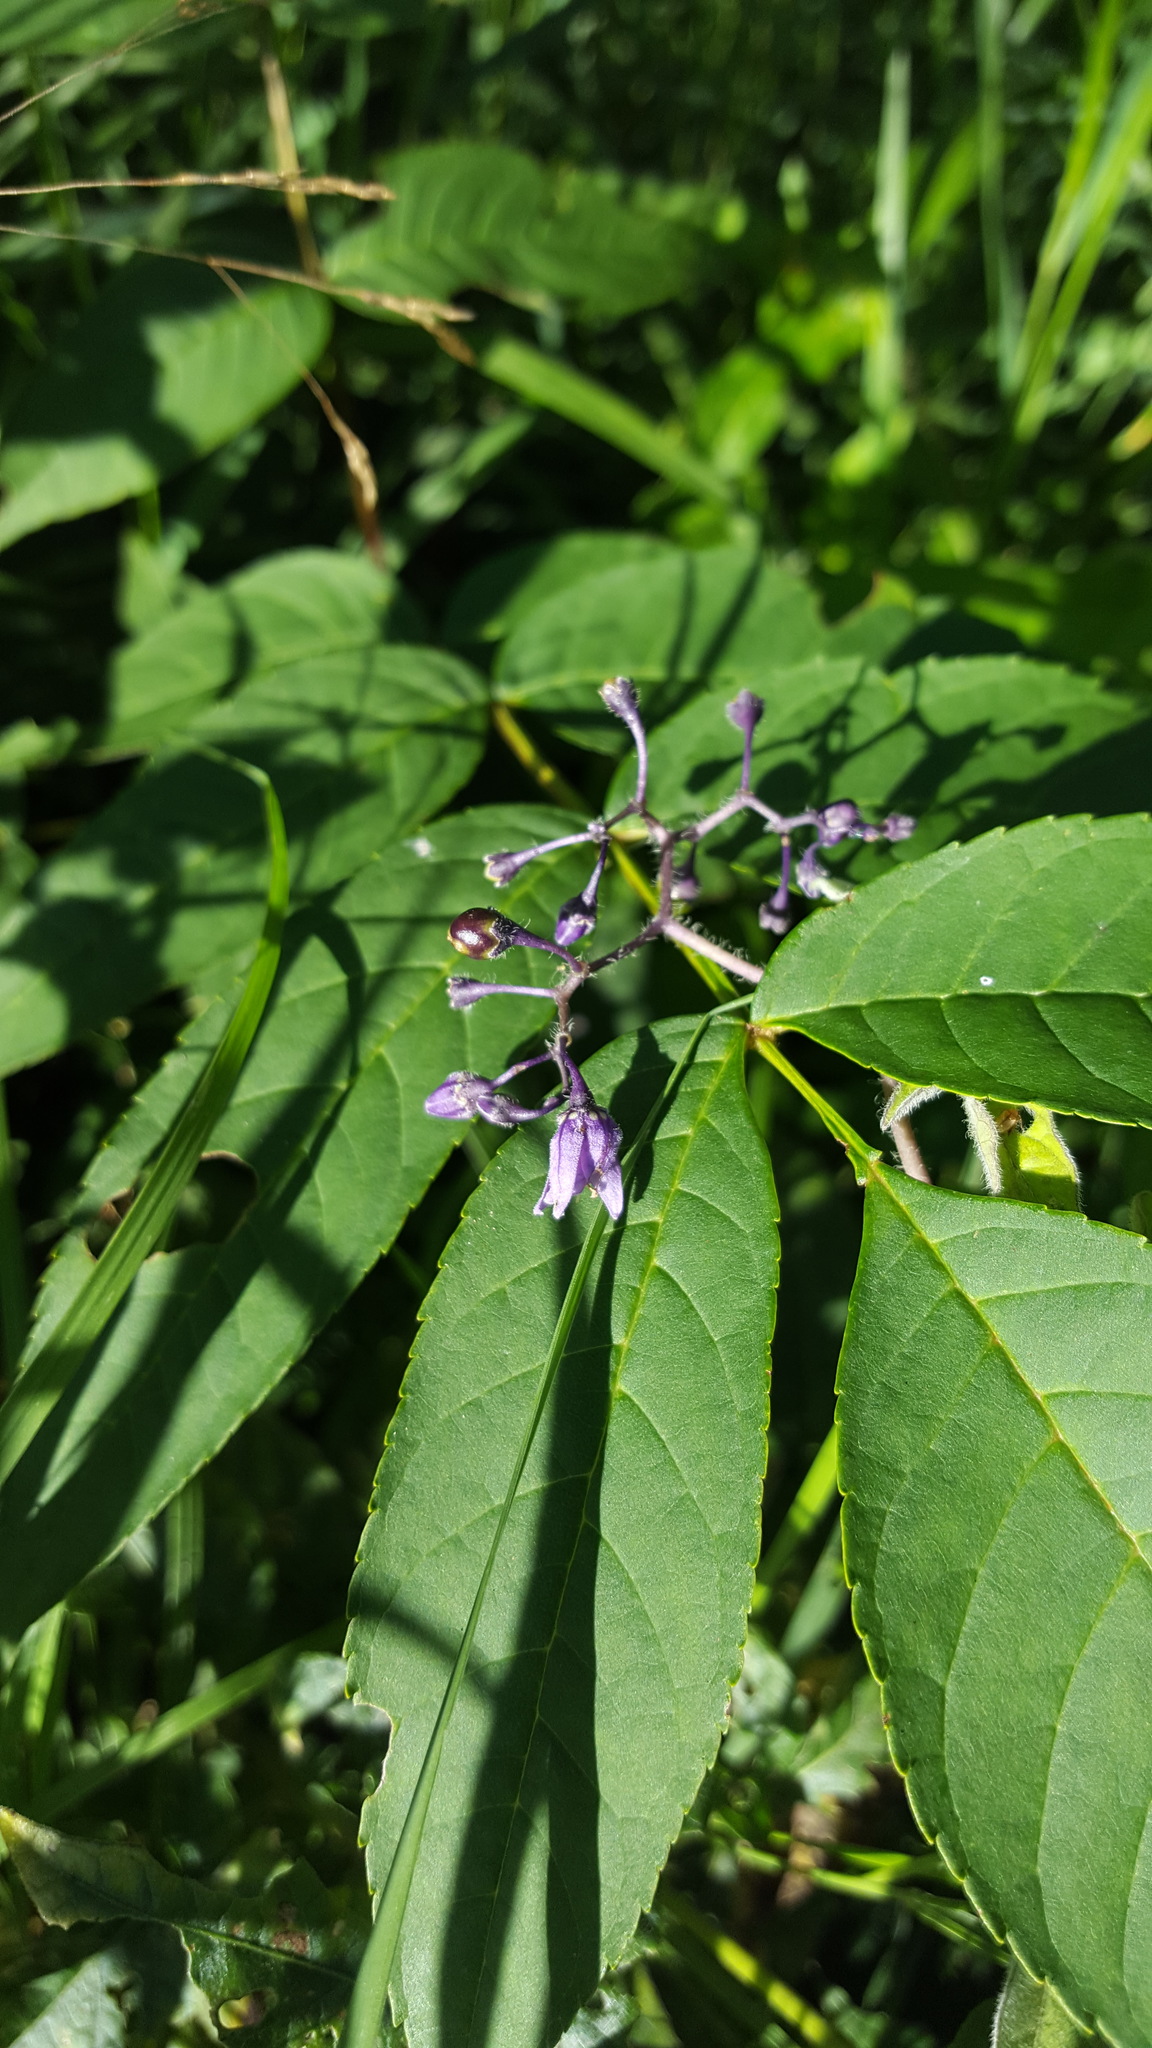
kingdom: Plantae
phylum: Tracheophyta
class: Magnoliopsida
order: Solanales
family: Solanaceae
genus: Solanum
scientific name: Solanum dulcamara
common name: Climbing nightshade
